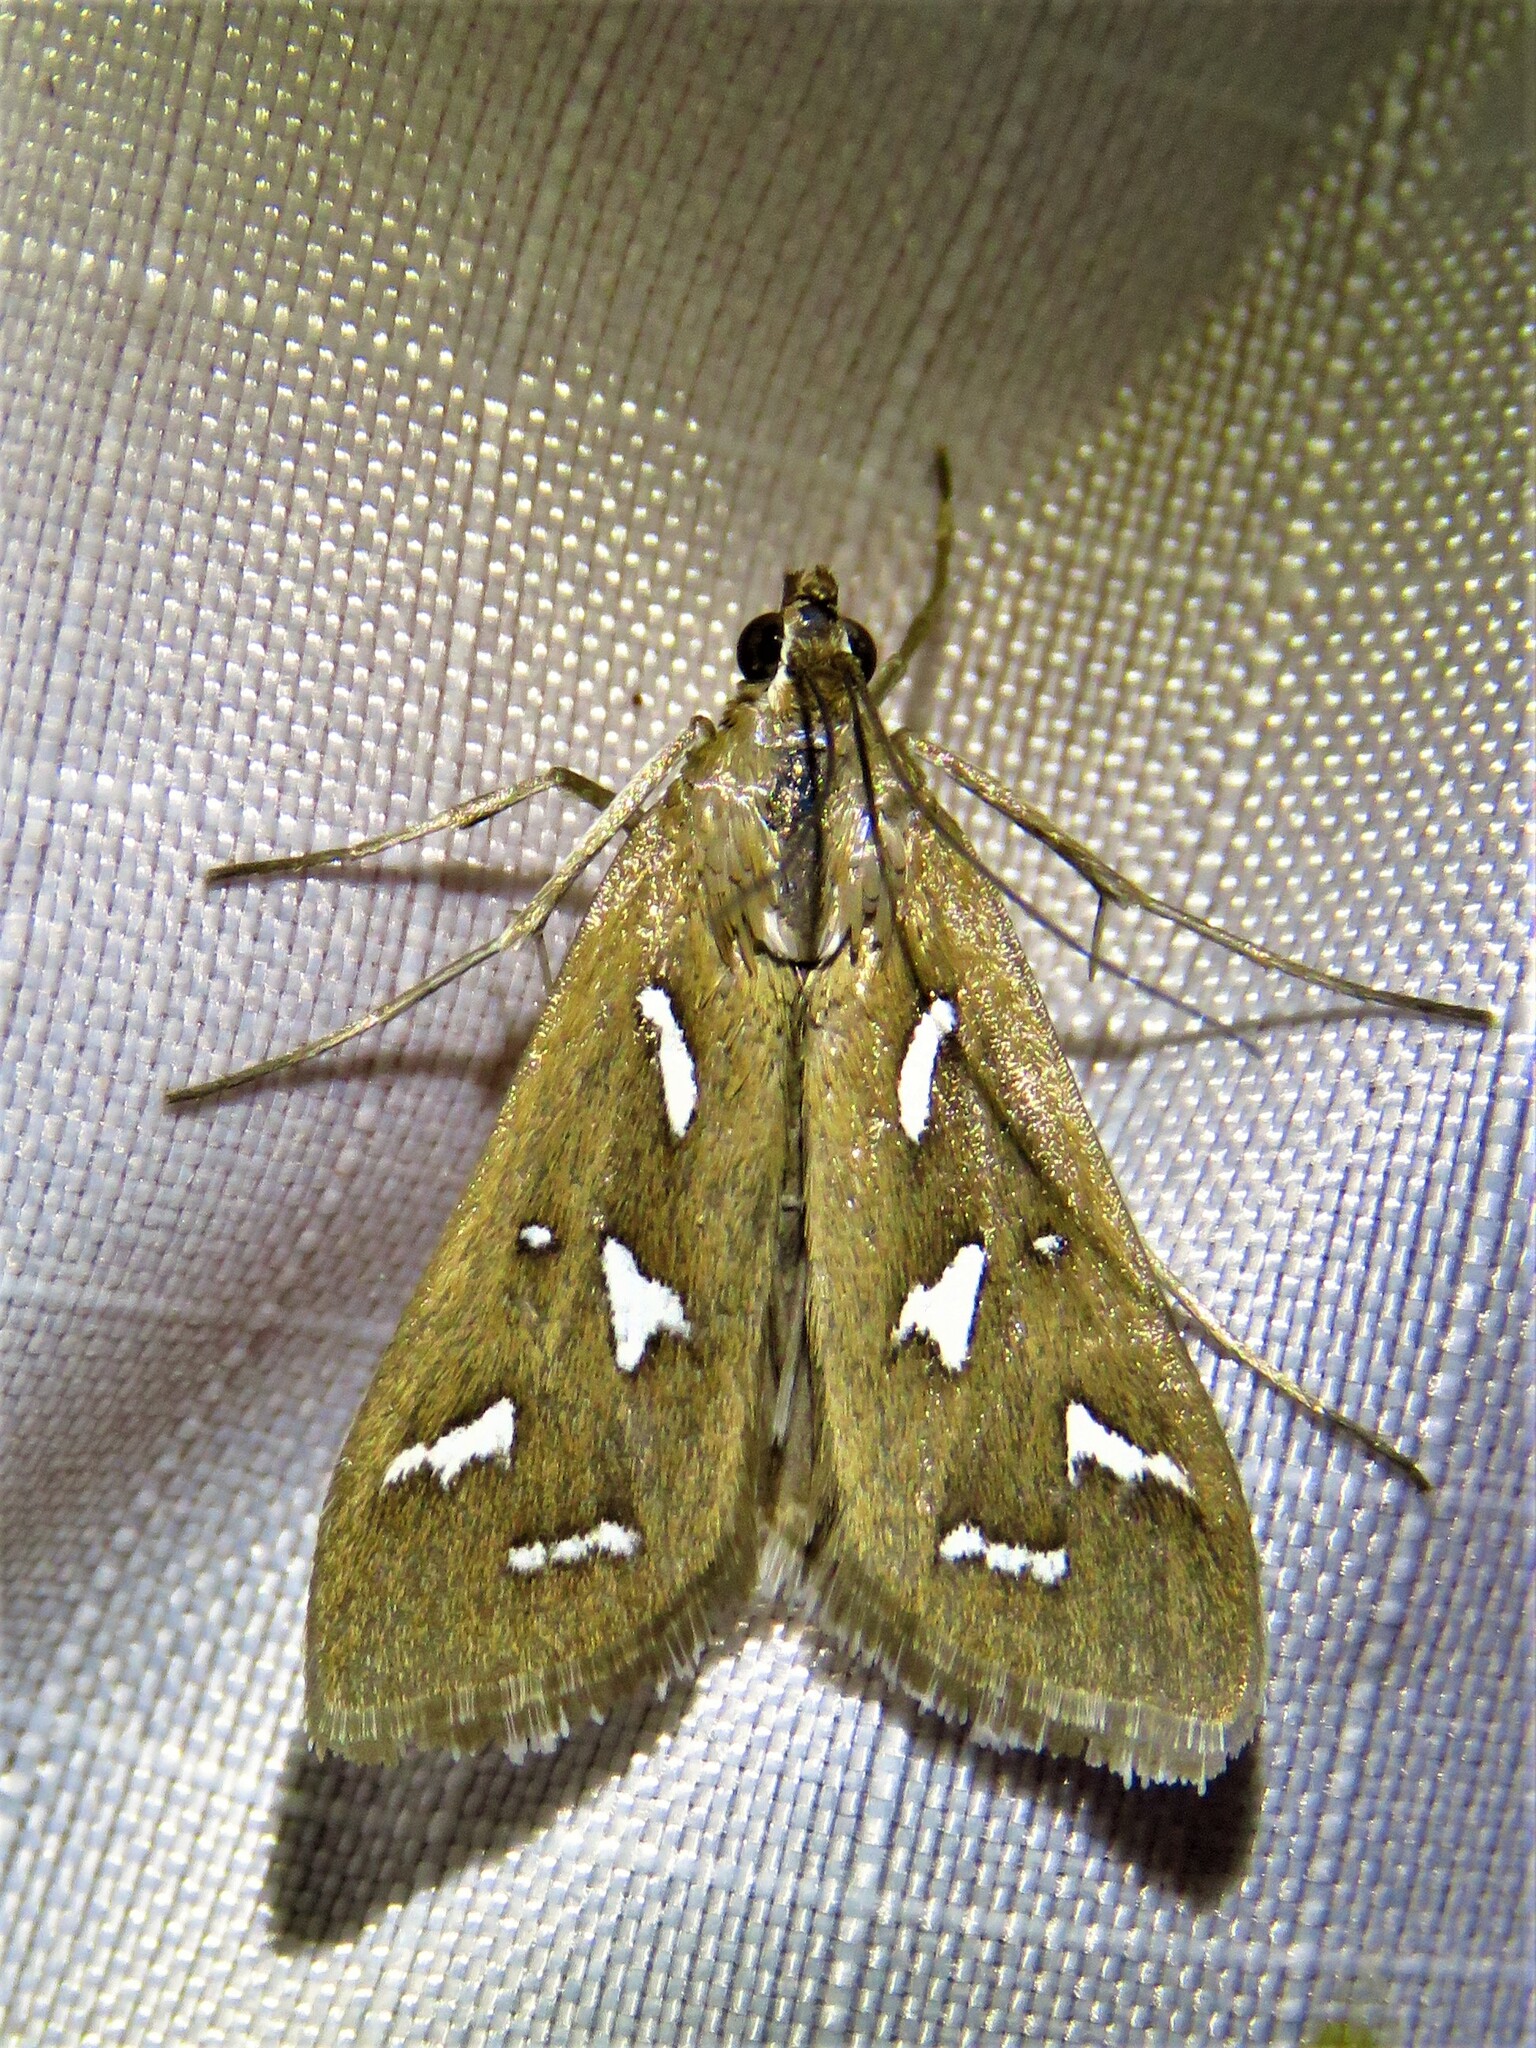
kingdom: Animalia
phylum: Arthropoda
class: Insecta
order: Lepidoptera
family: Crambidae
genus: Diastictis
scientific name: Diastictis fracturalis
